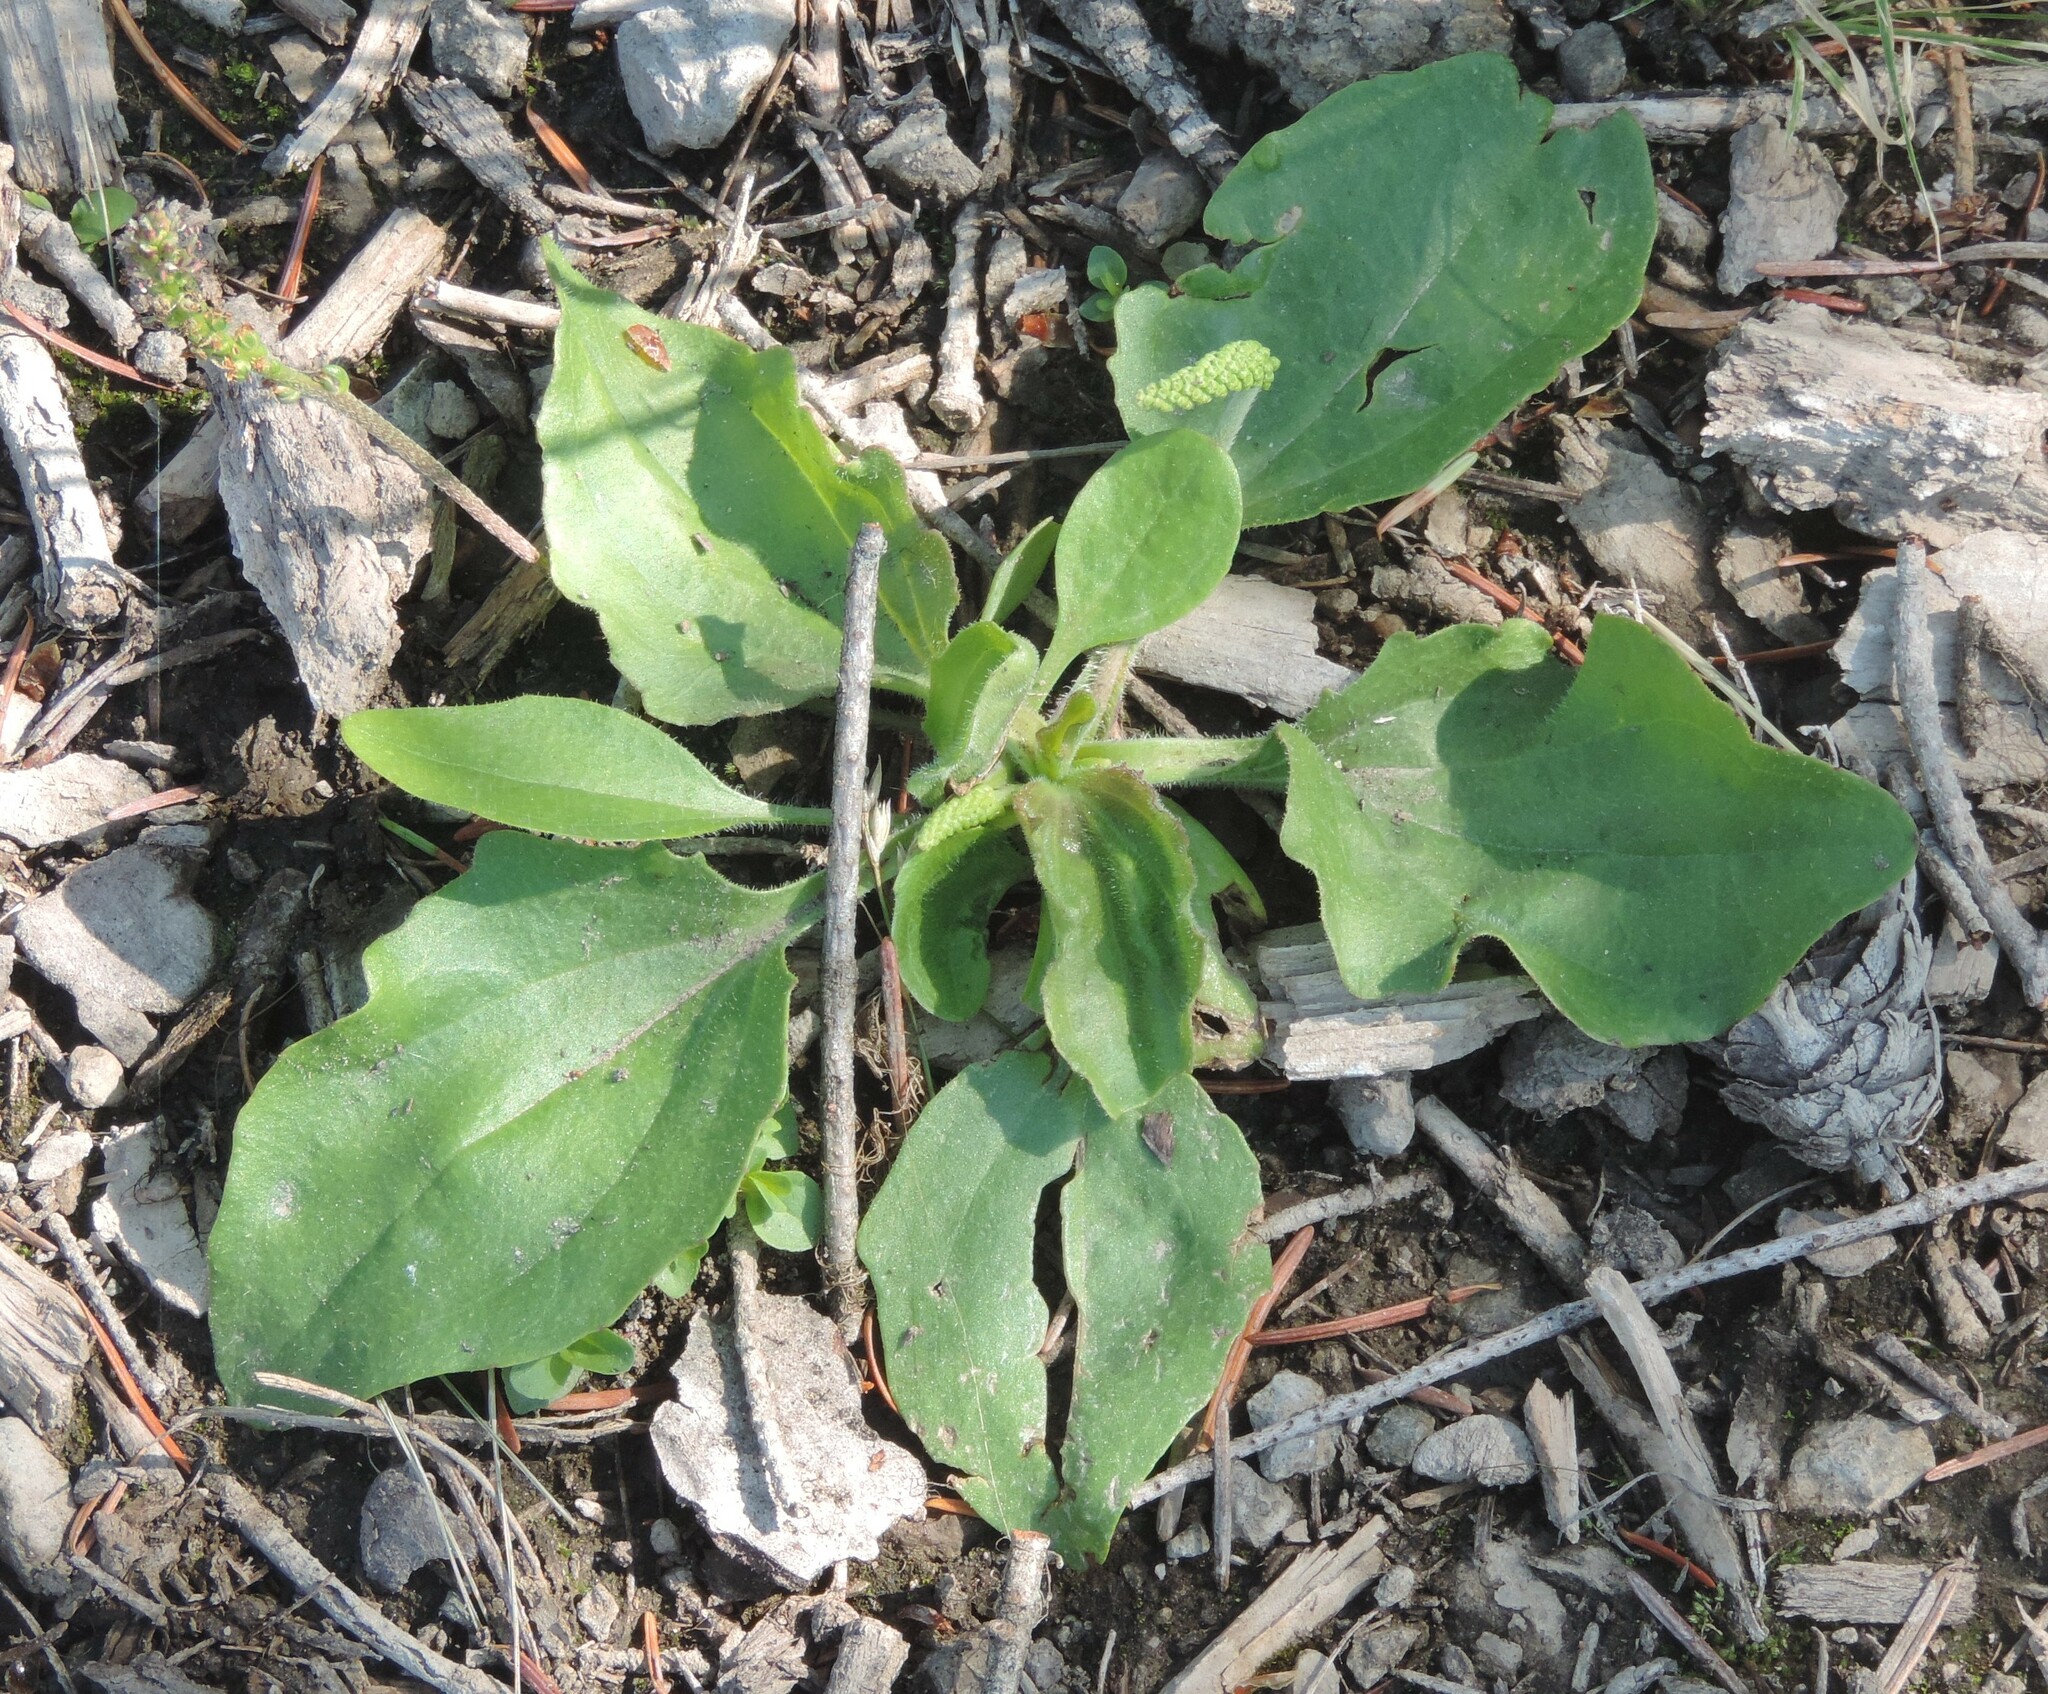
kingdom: Plantae
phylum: Tracheophyta
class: Magnoliopsida
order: Lamiales
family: Plantaginaceae
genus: Plantago
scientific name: Plantago major
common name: Common plantain
